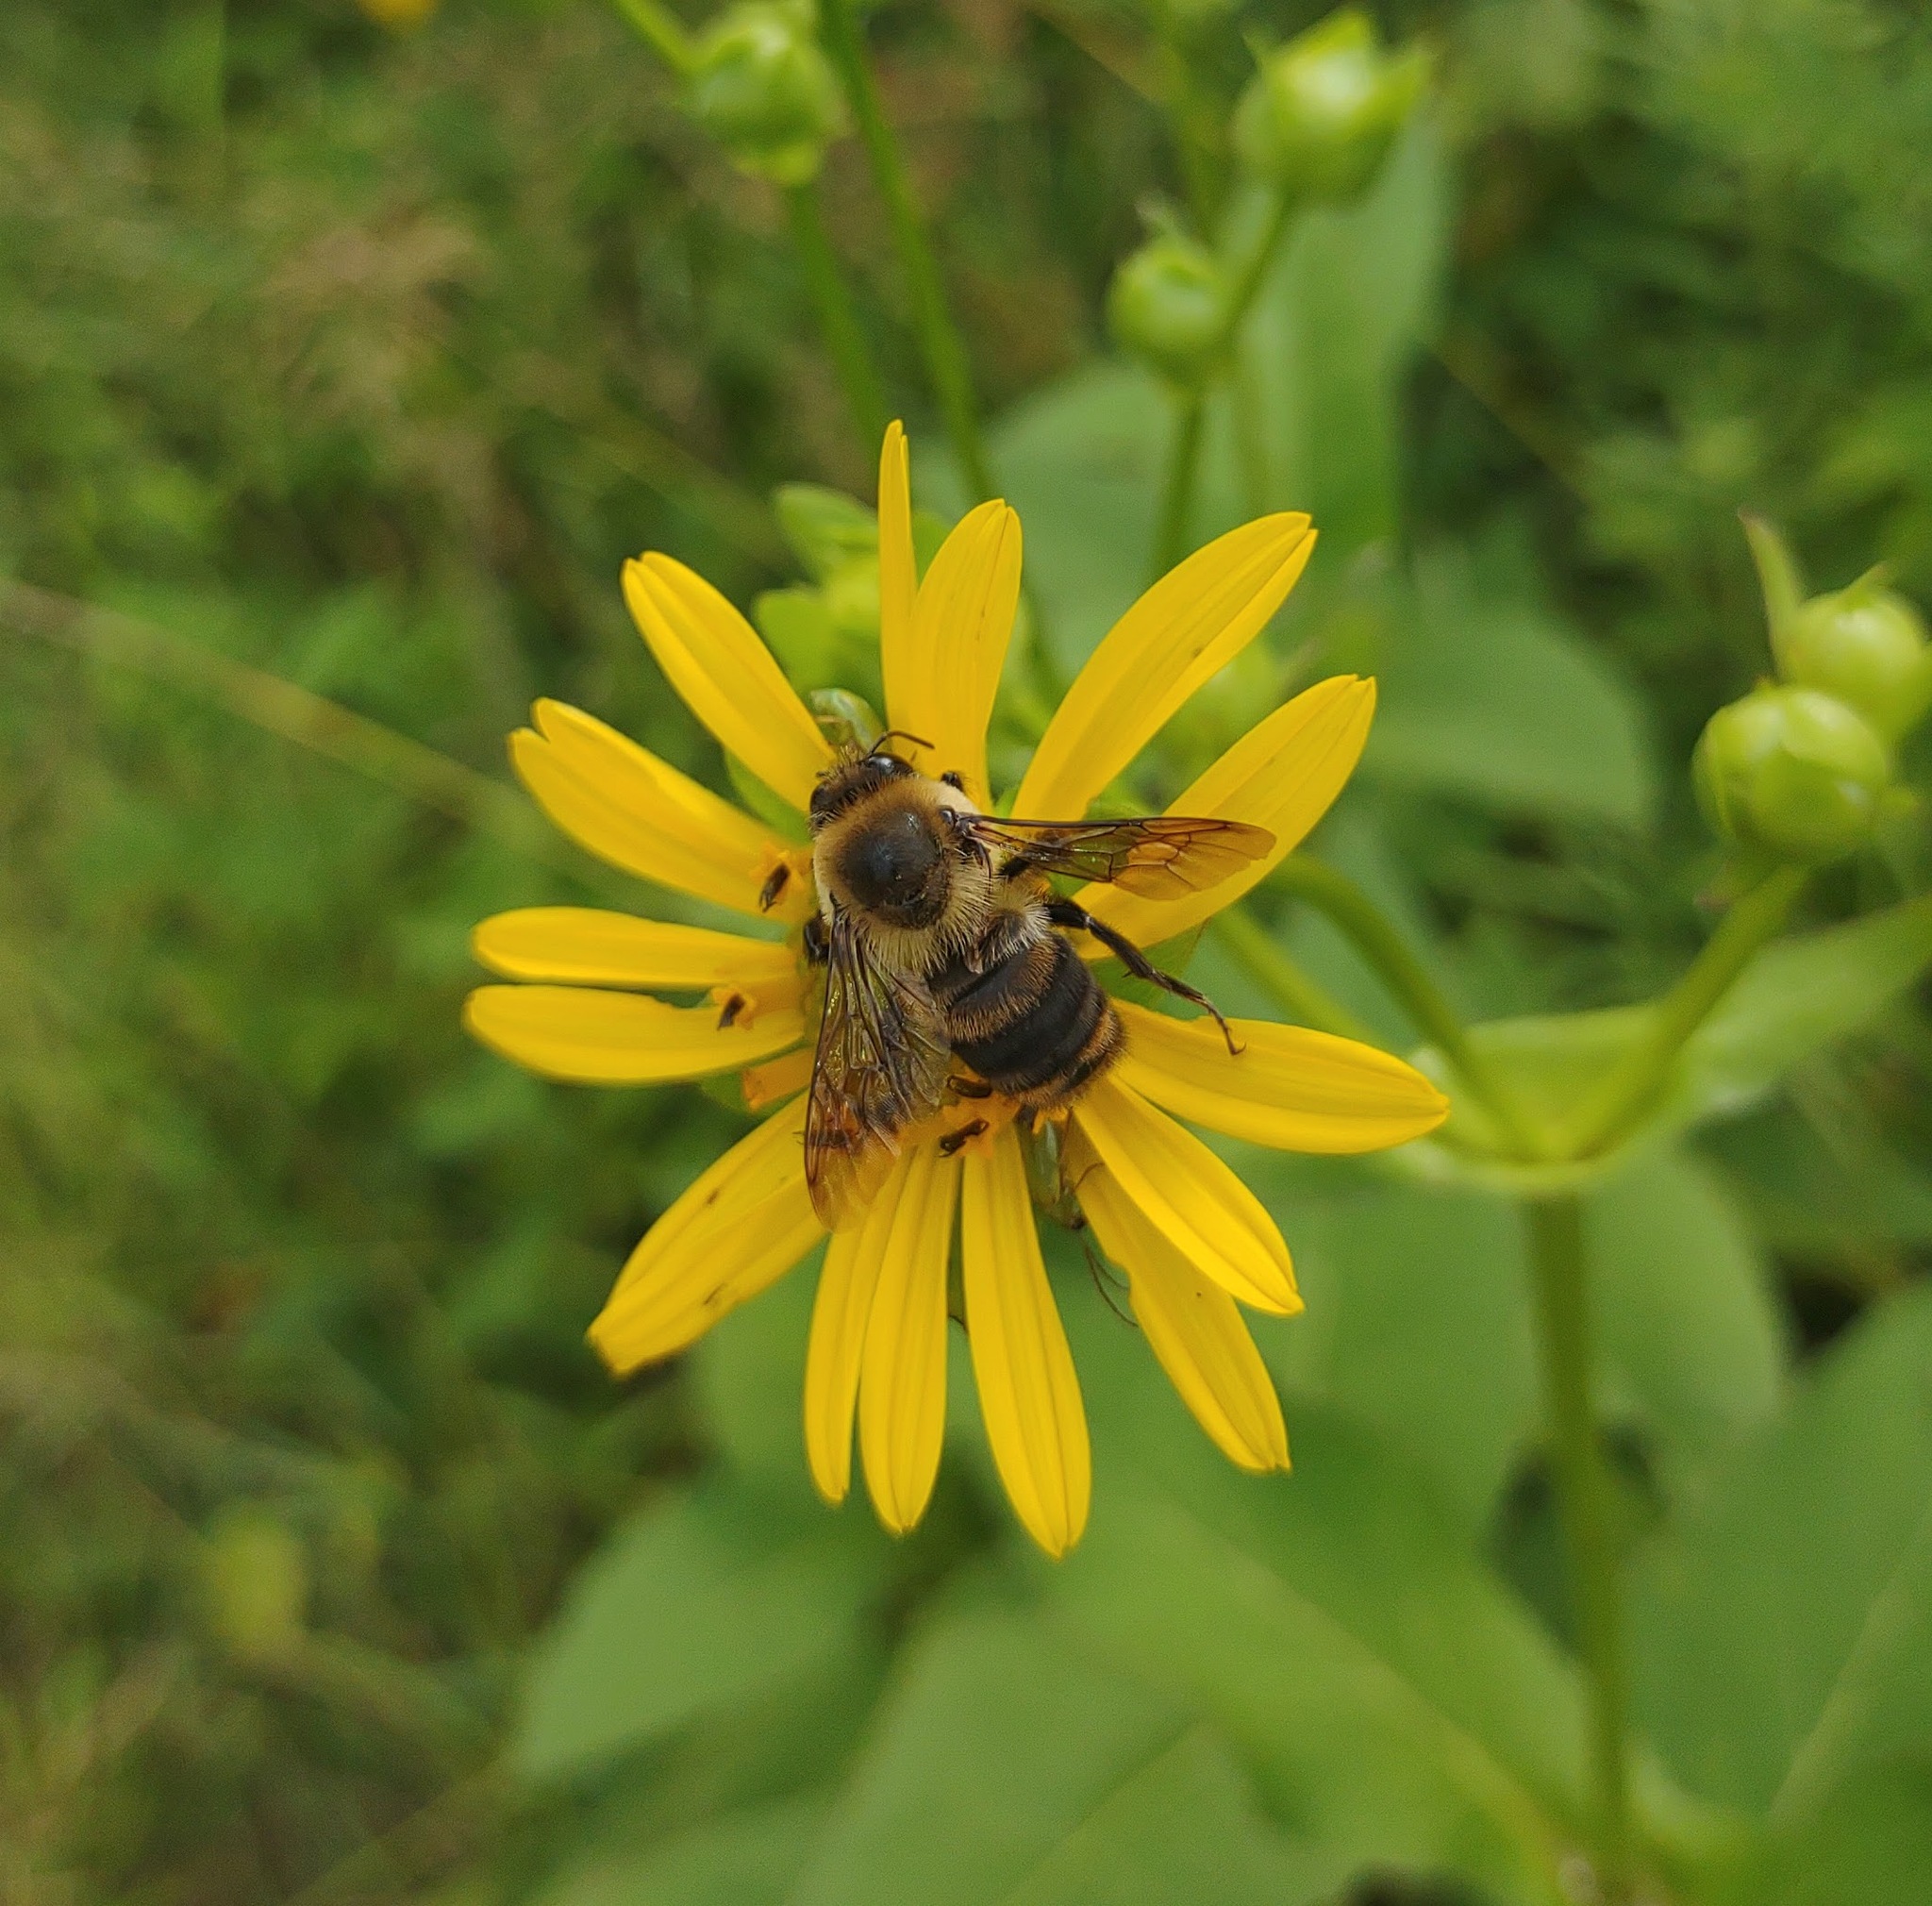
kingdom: Animalia
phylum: Arthropoda
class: Insecta
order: Hymenoptera
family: Apidae
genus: Bombus
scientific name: Bombus griseocollis
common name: Brown-belted bumble bee
